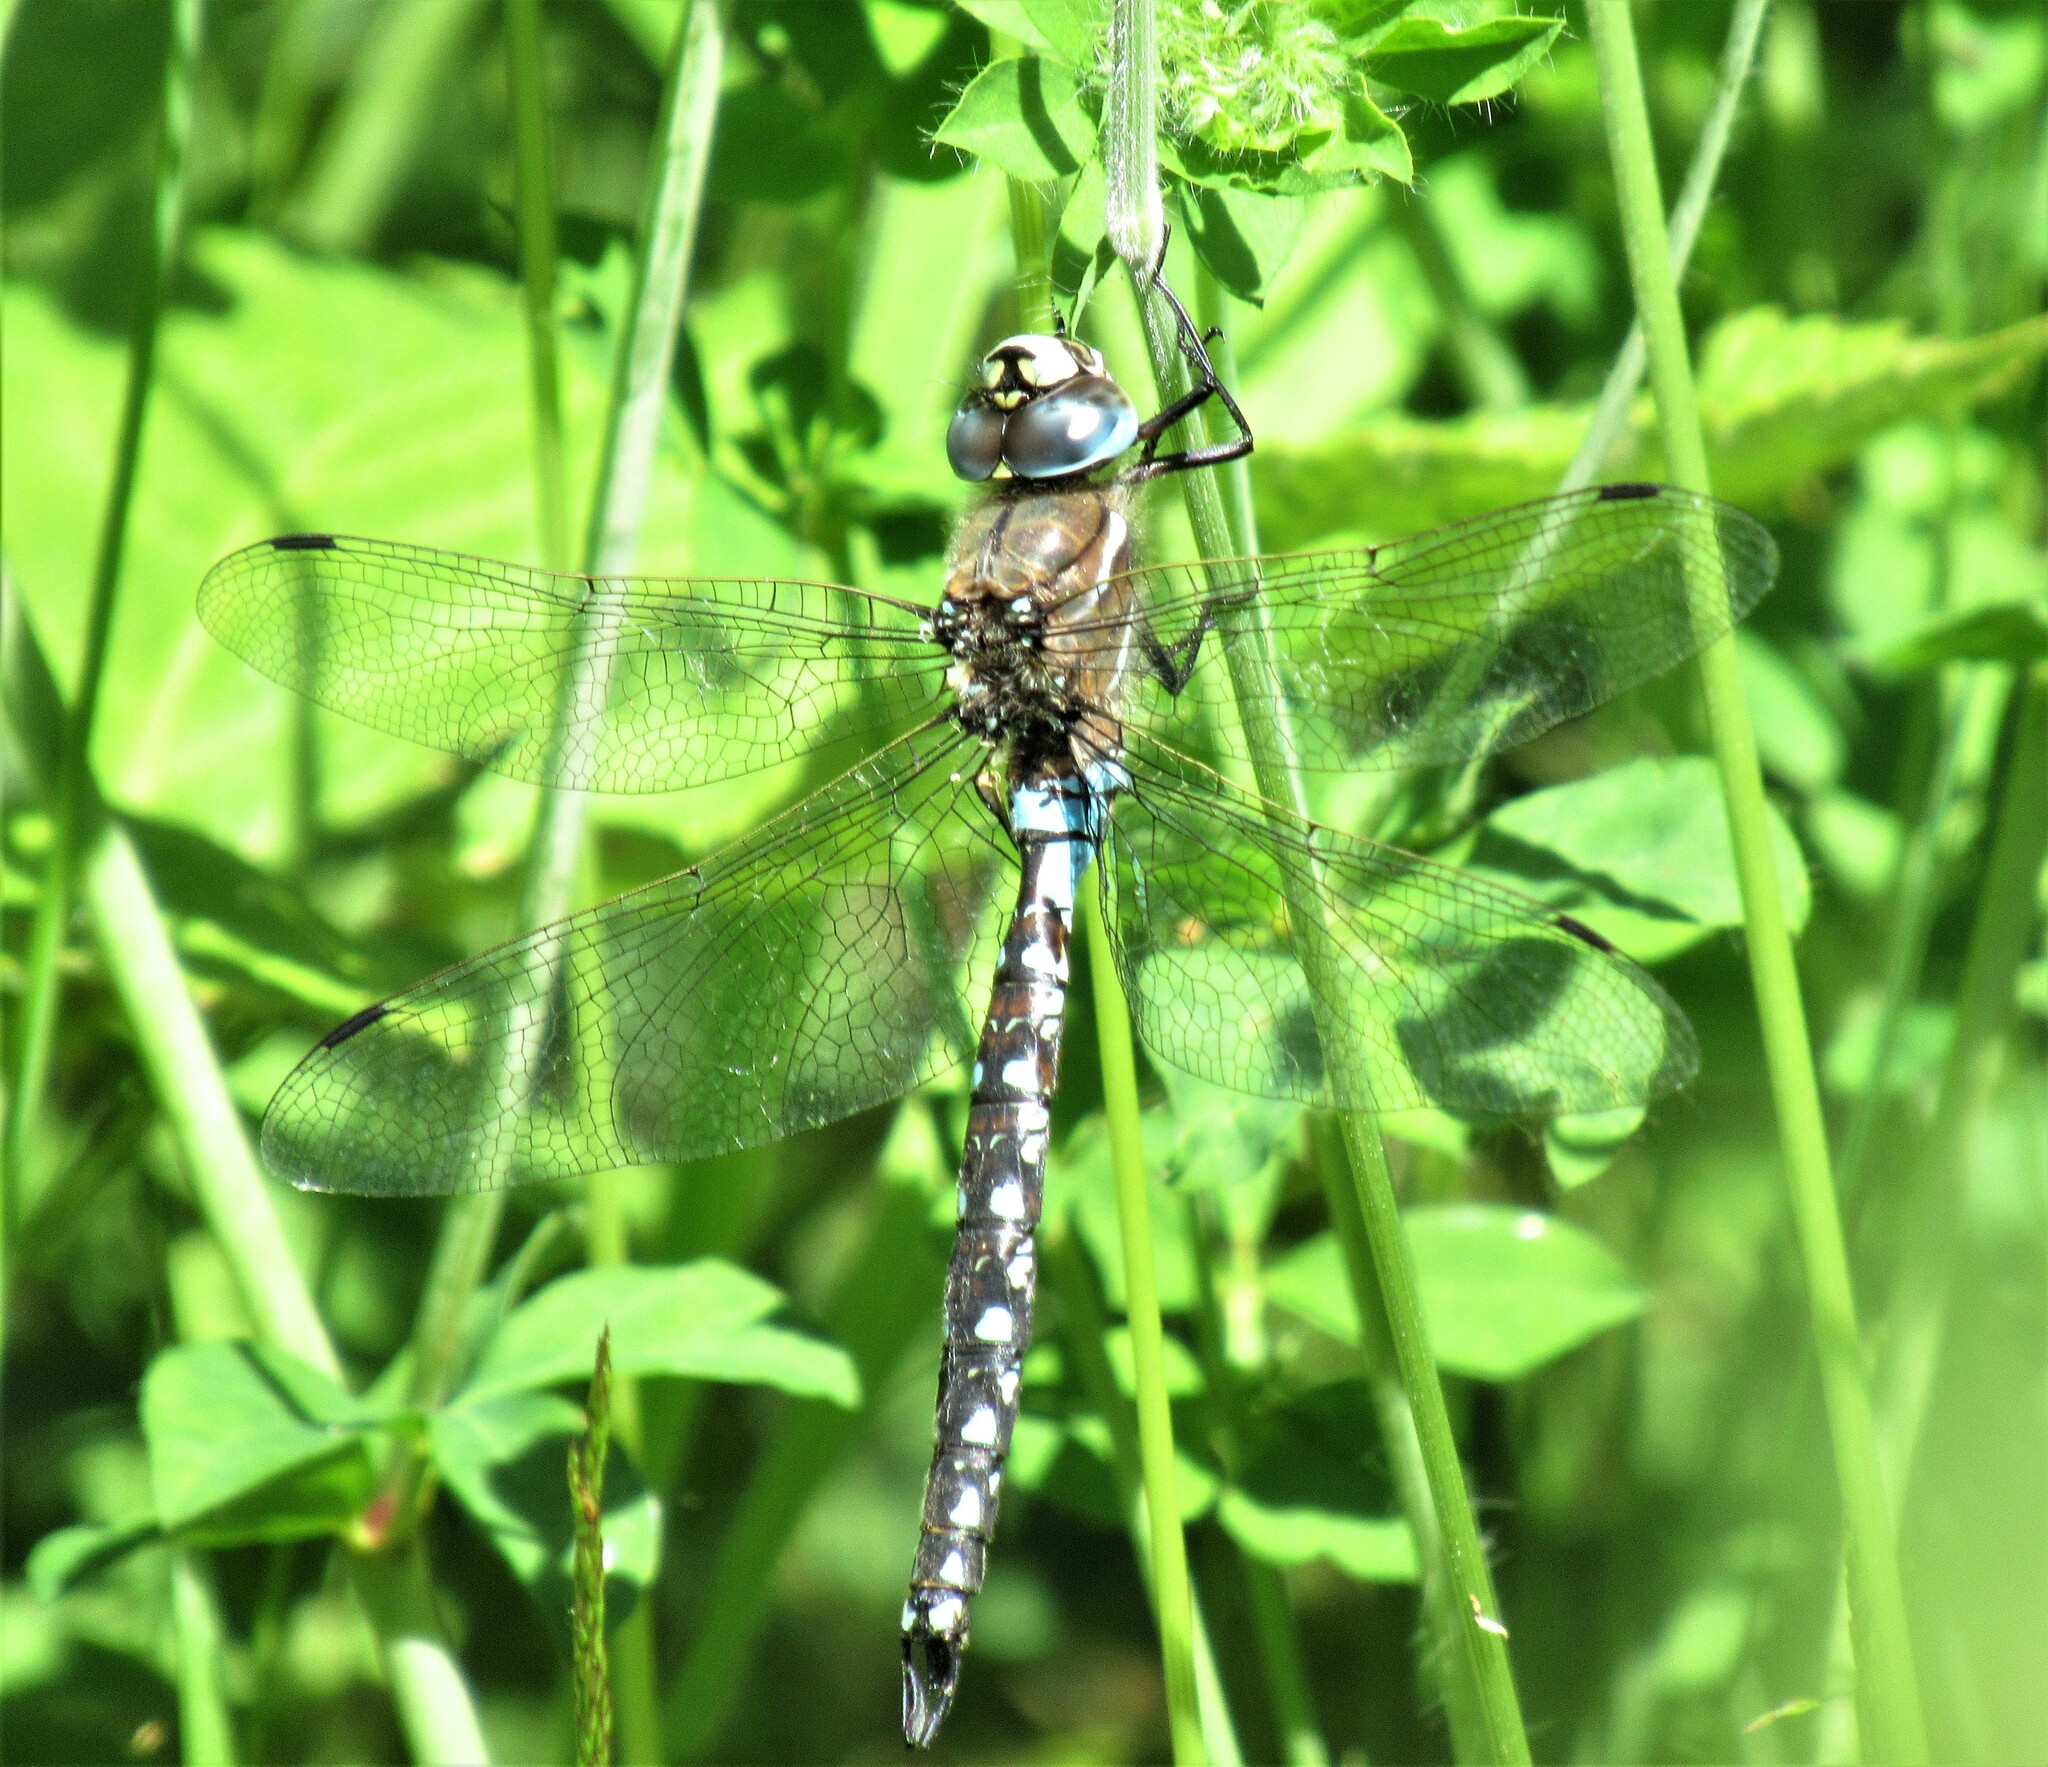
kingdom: Animalia
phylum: Arthropoda
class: Insecta
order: Odonata
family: Aeshnidae
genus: Rhionaeschna
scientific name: Rhionaeschna californica
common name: California darner
